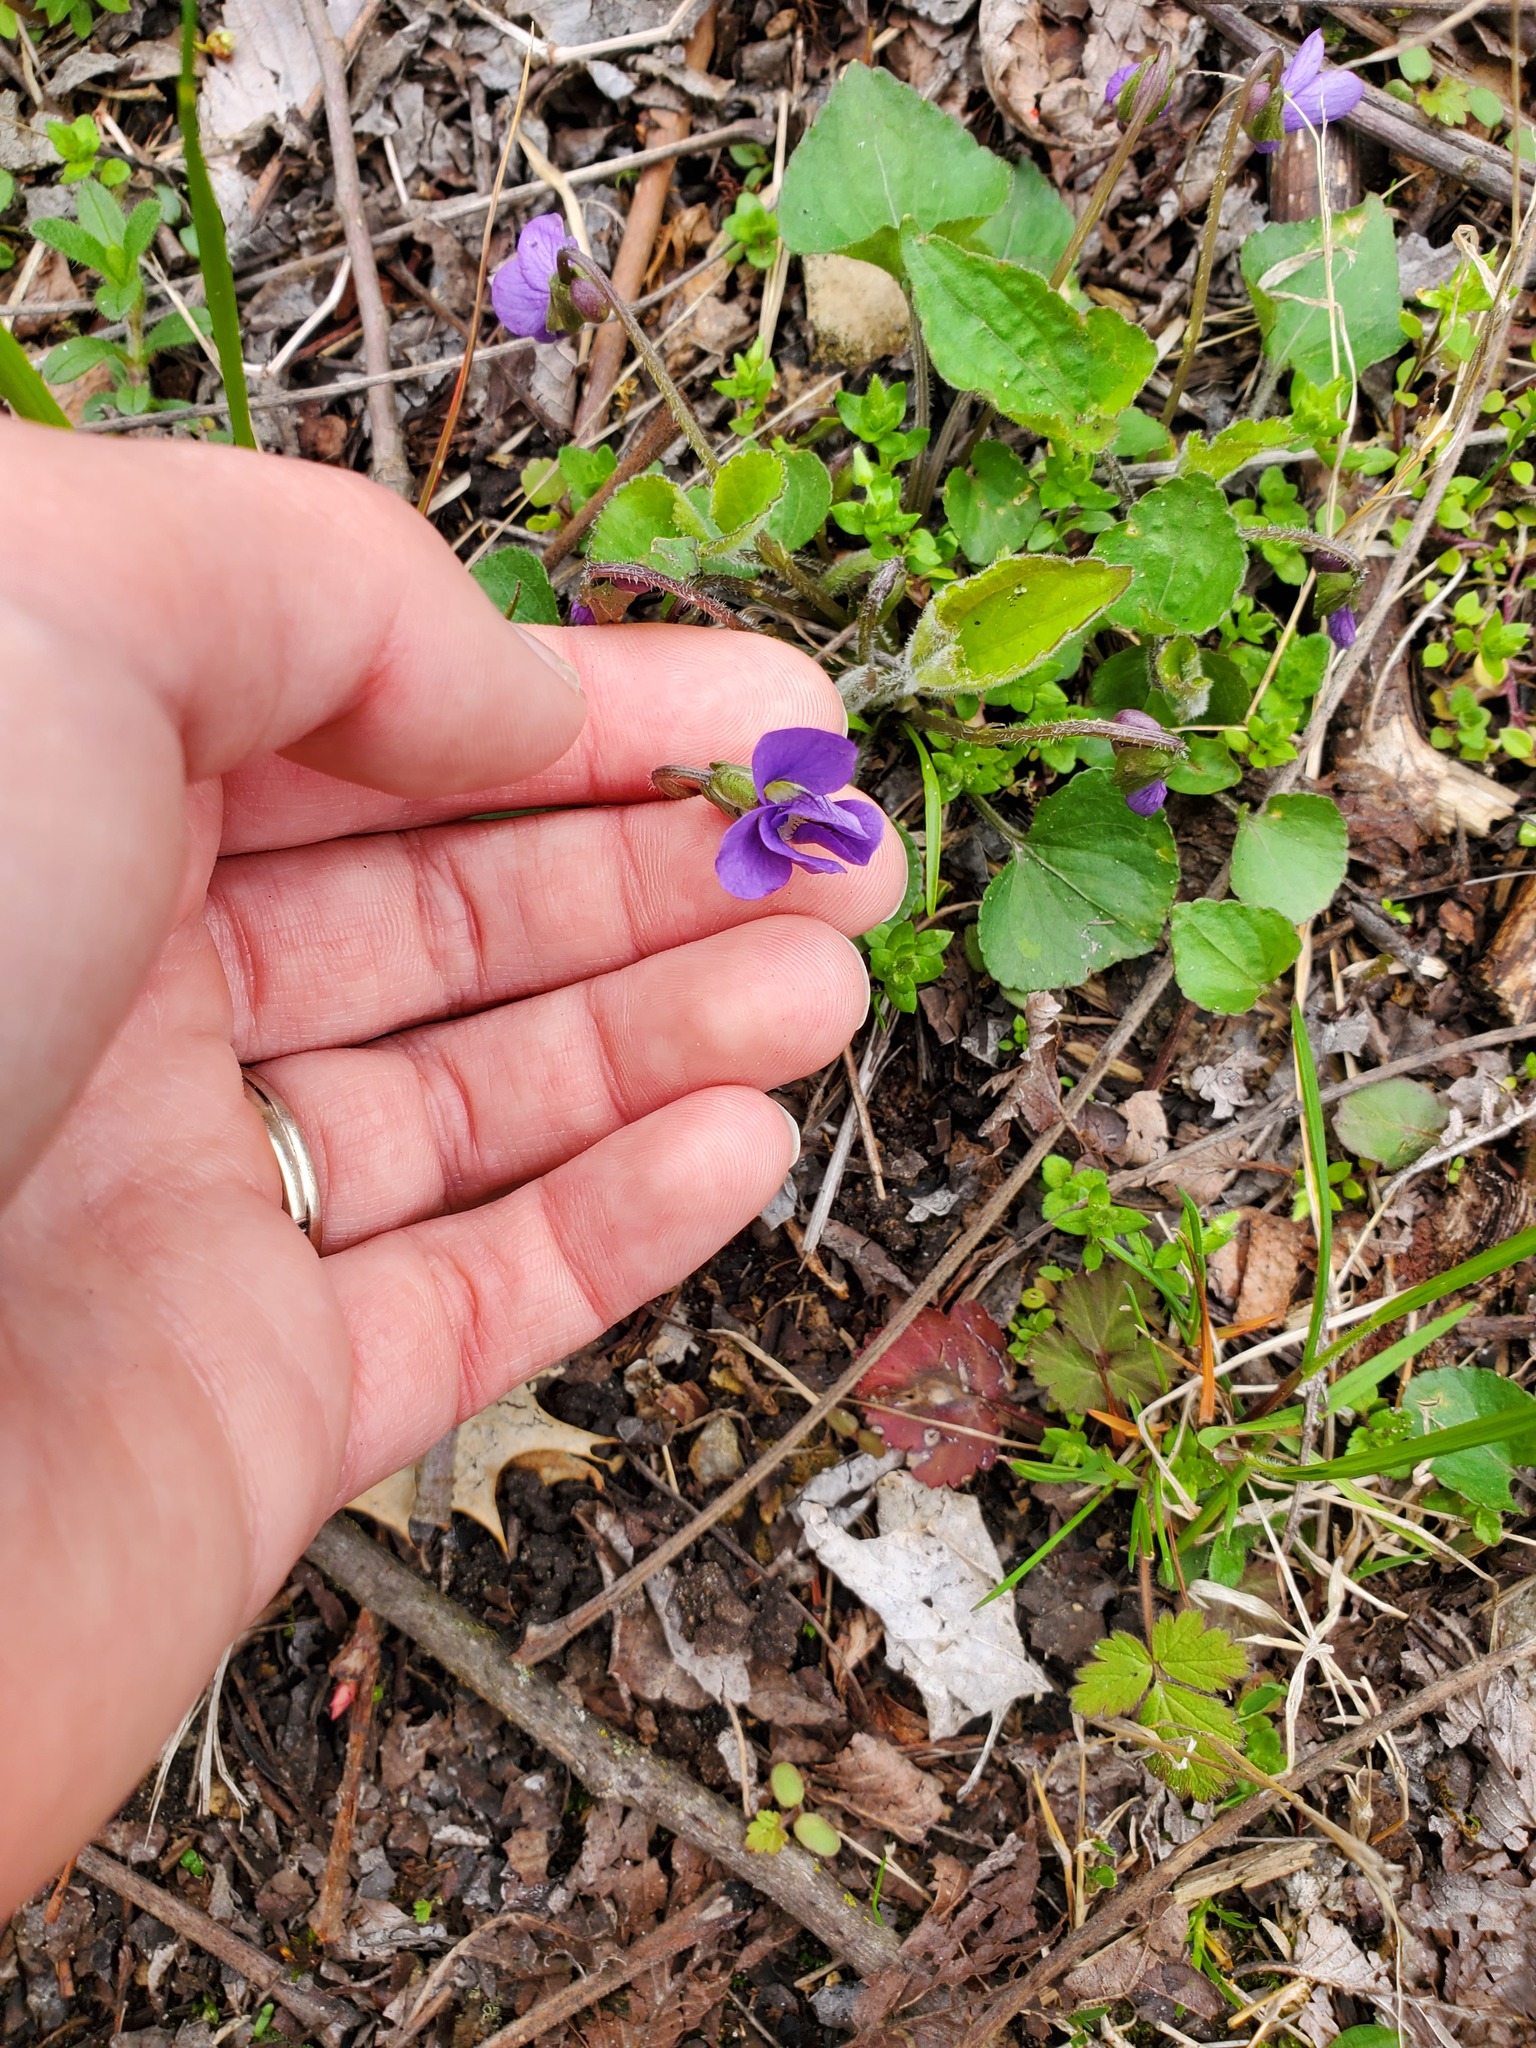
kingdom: Plantae
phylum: Tracheophyta
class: Magnoliopsida
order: Malpighiales
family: Violaceae
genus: Viola
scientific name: Viola sororia
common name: Dooryard violet
